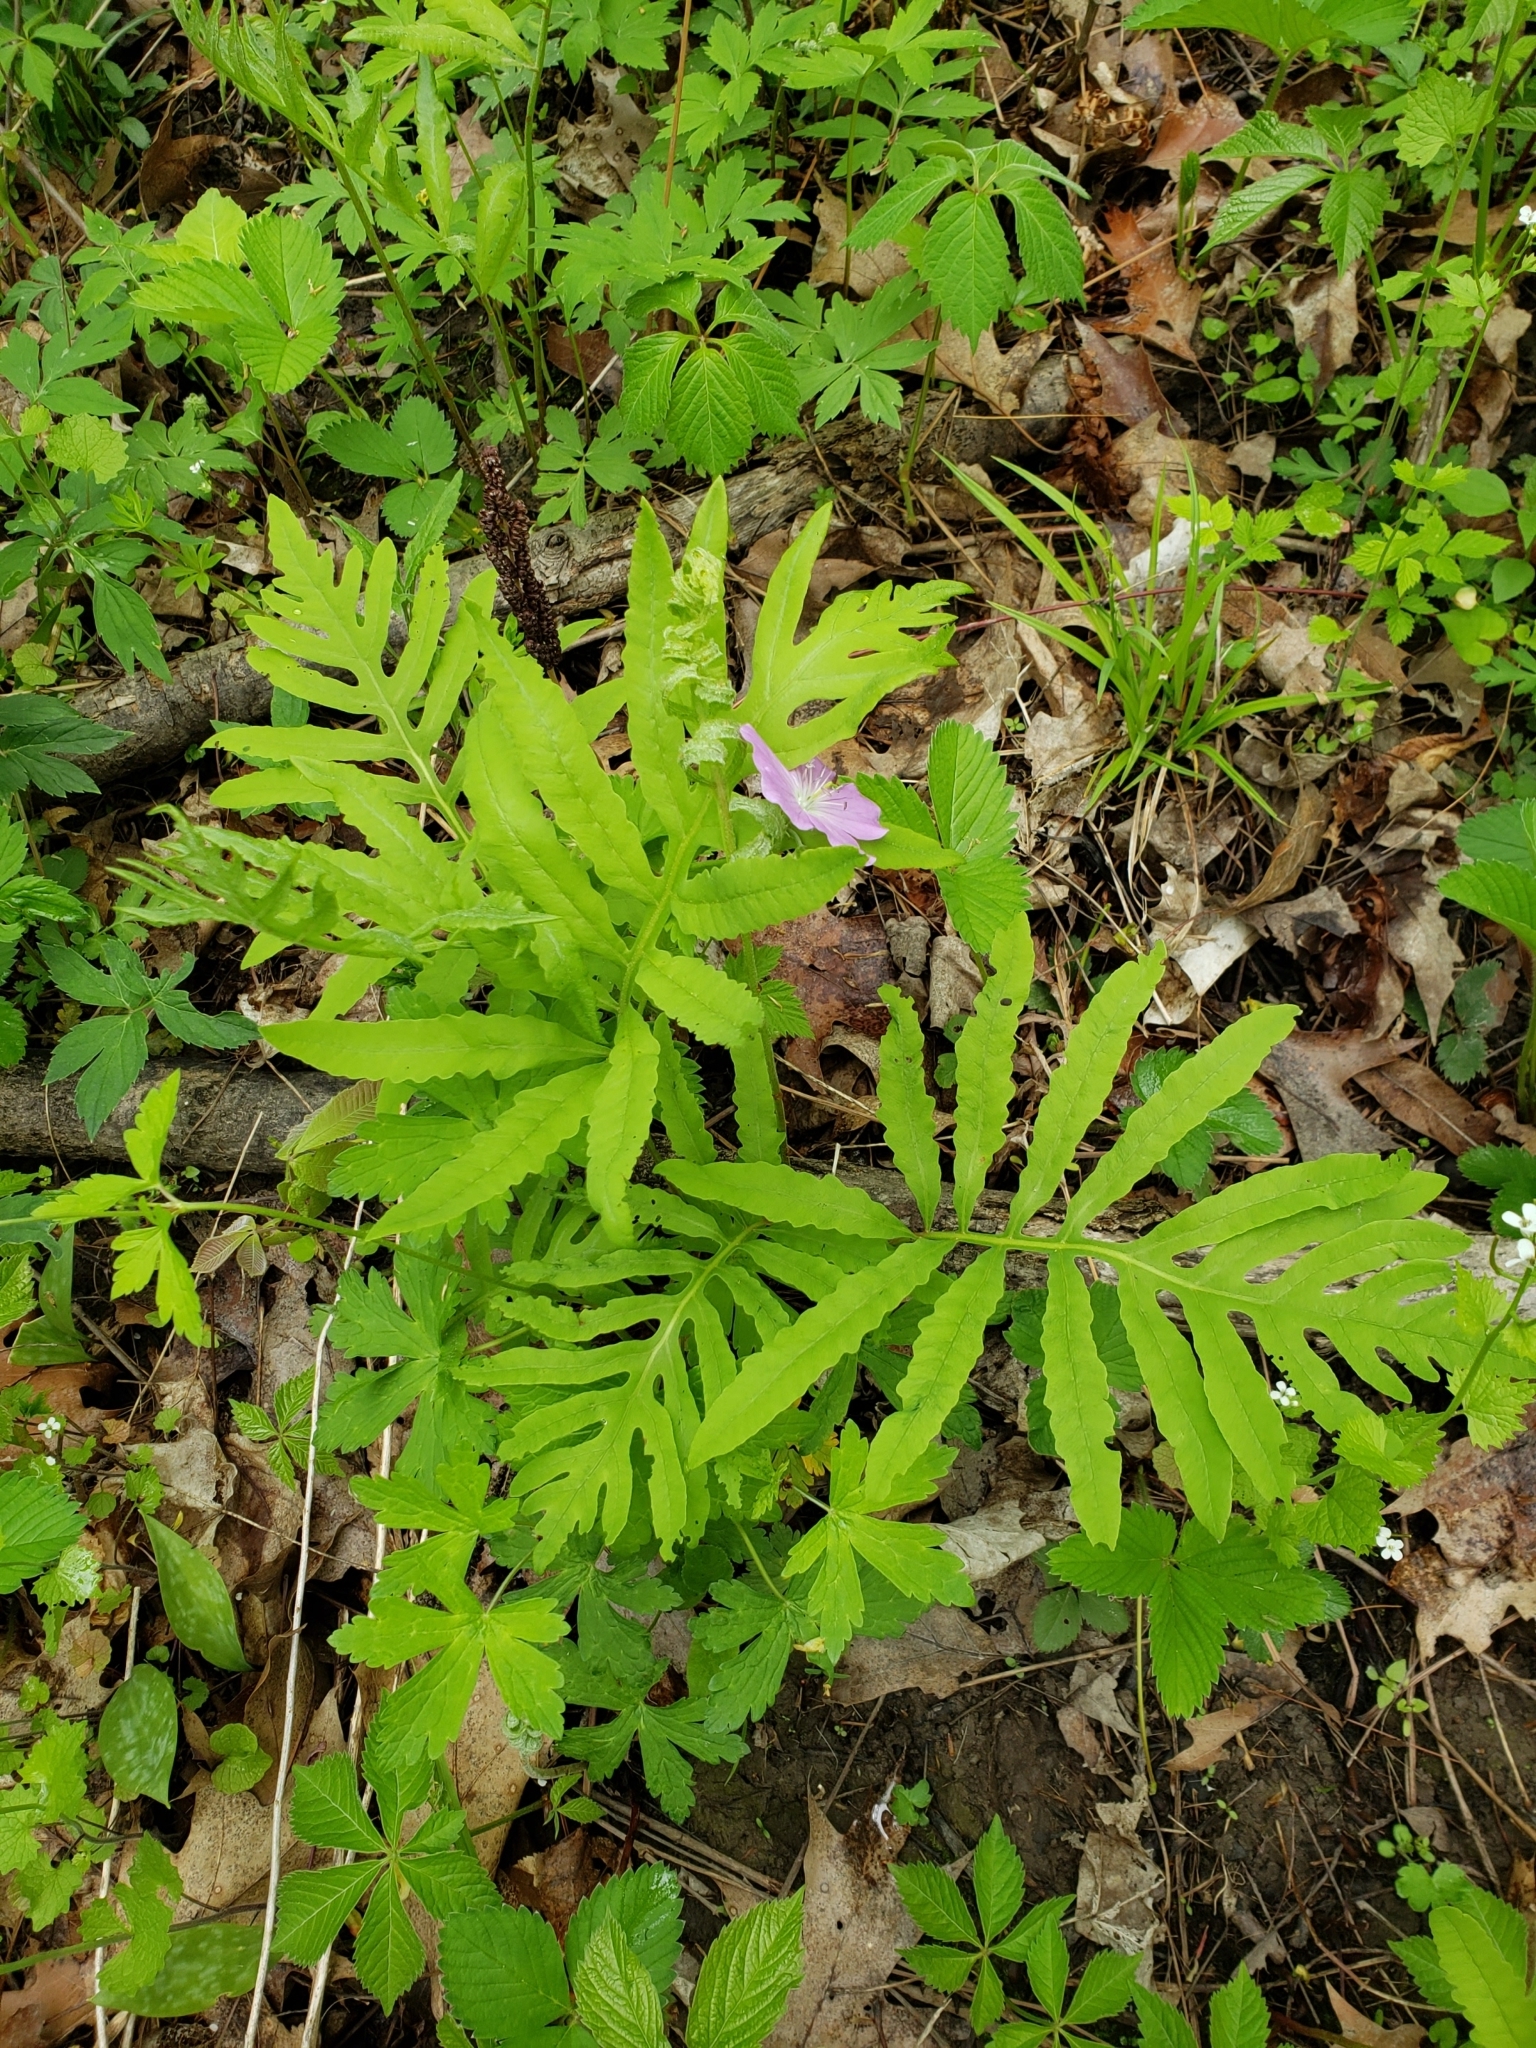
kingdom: Plantae
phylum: Tracheophyta
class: Polypodiopsida
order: Polypodiales
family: Onocleaceae
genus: Onoclea
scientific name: Onoclea sensibilis
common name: Sensitive fern
